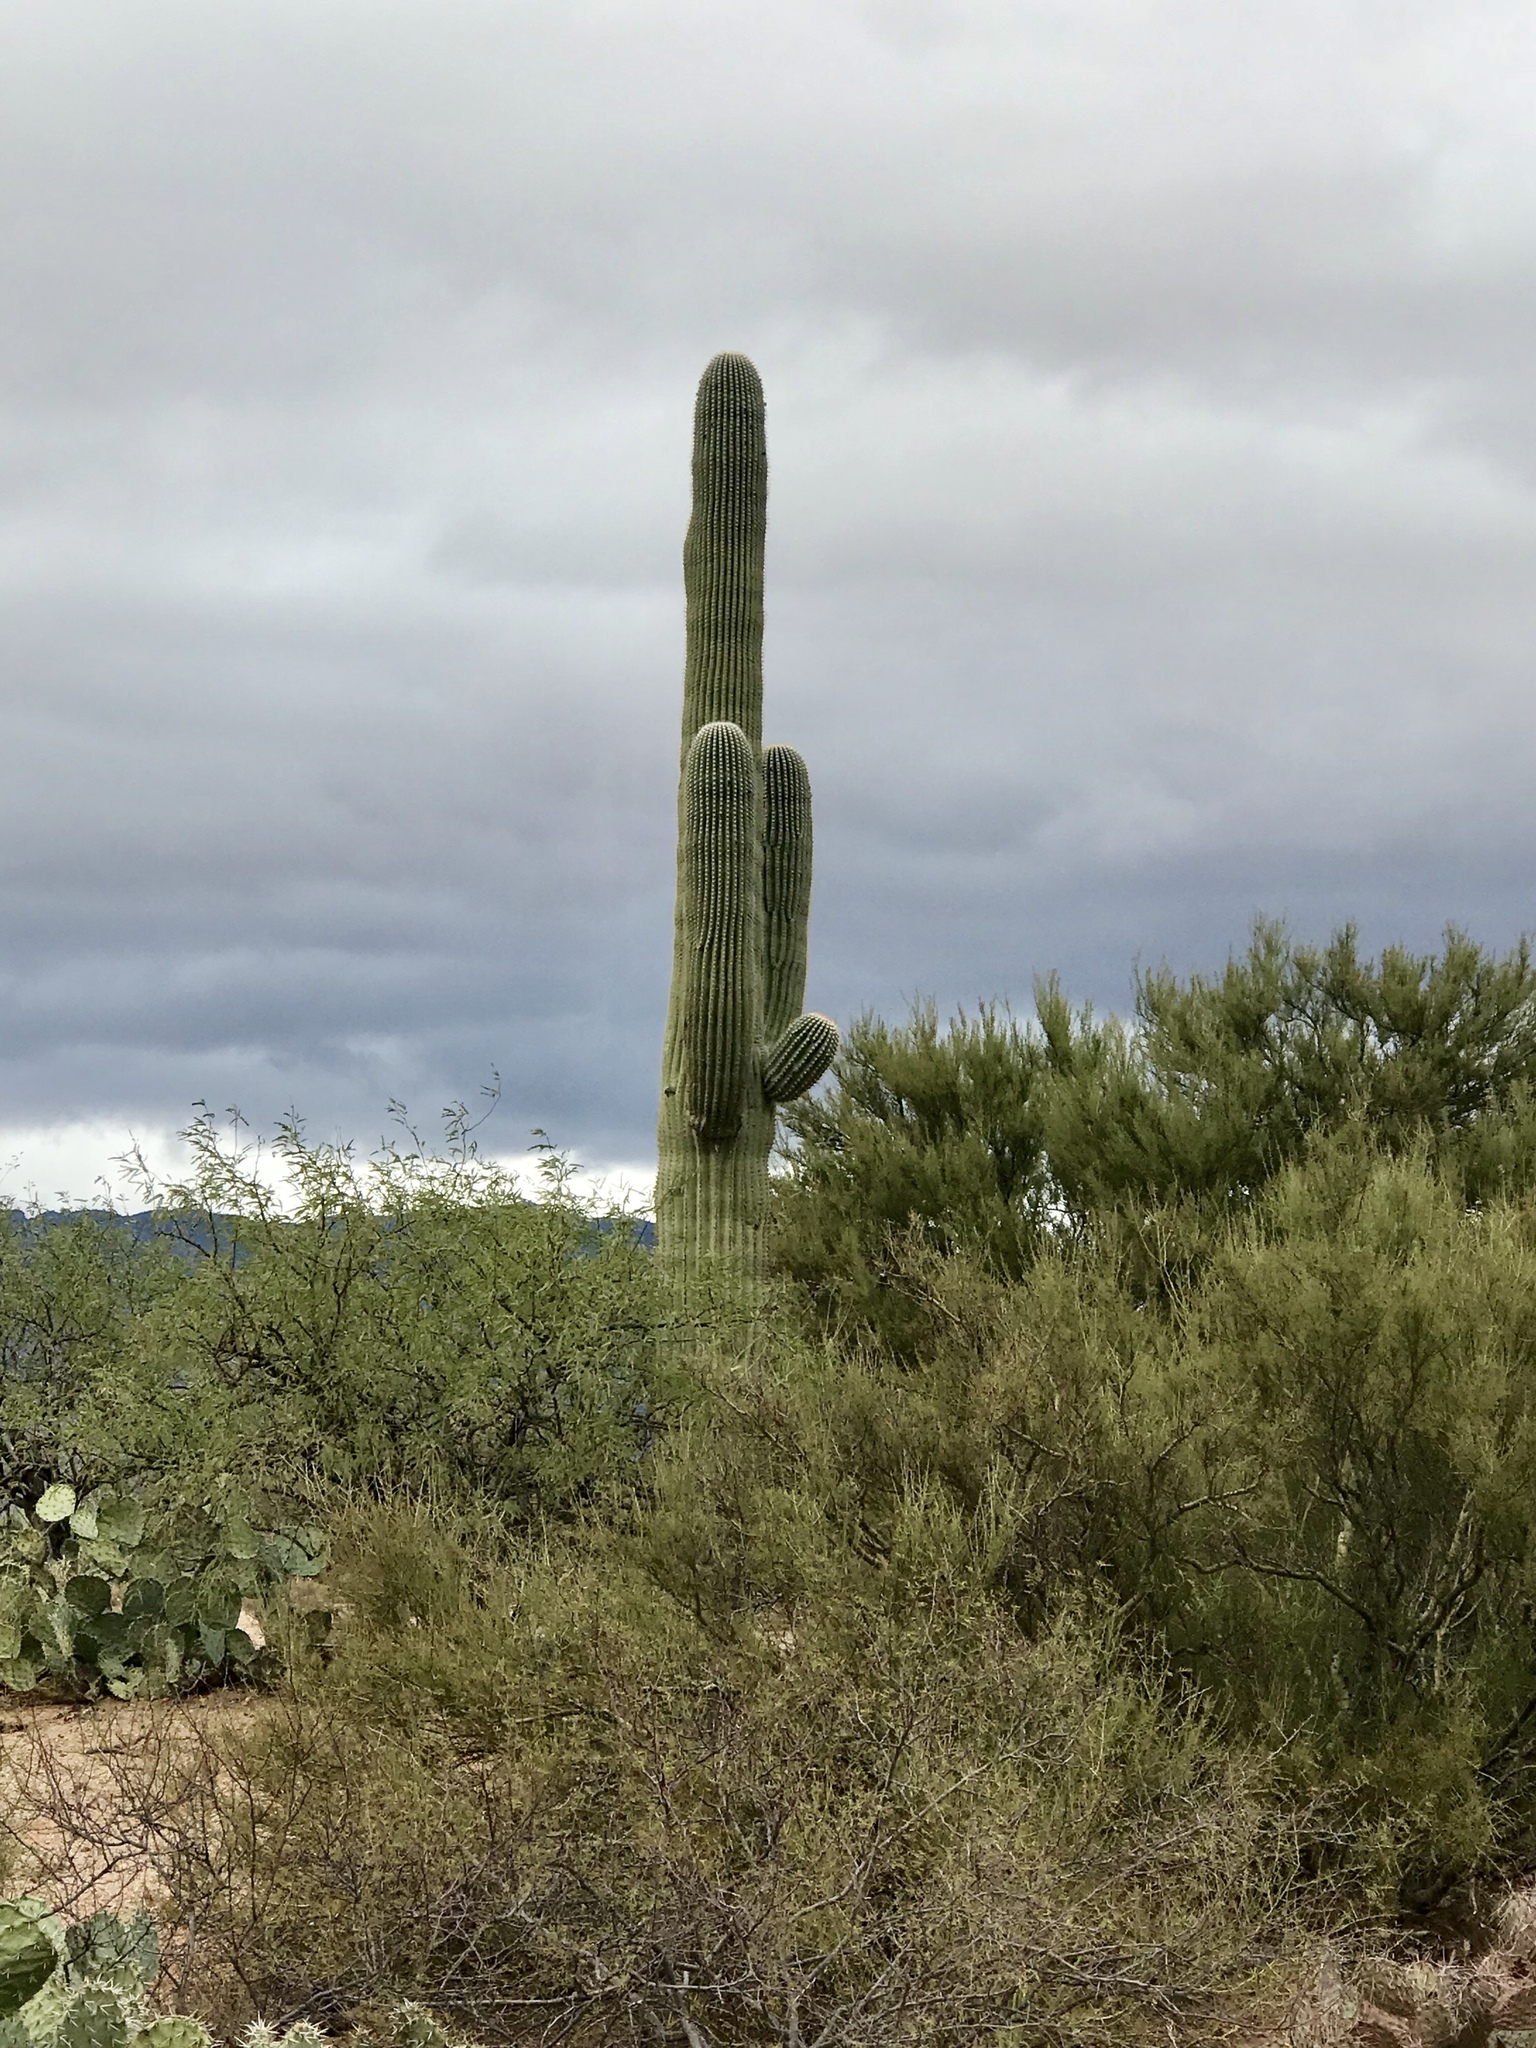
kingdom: Plantae
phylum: Tracheophyta
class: Magnoliopsida
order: Zygophyllales
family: Zygophyllaceae
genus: Larrea
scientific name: Larrea tridentata
